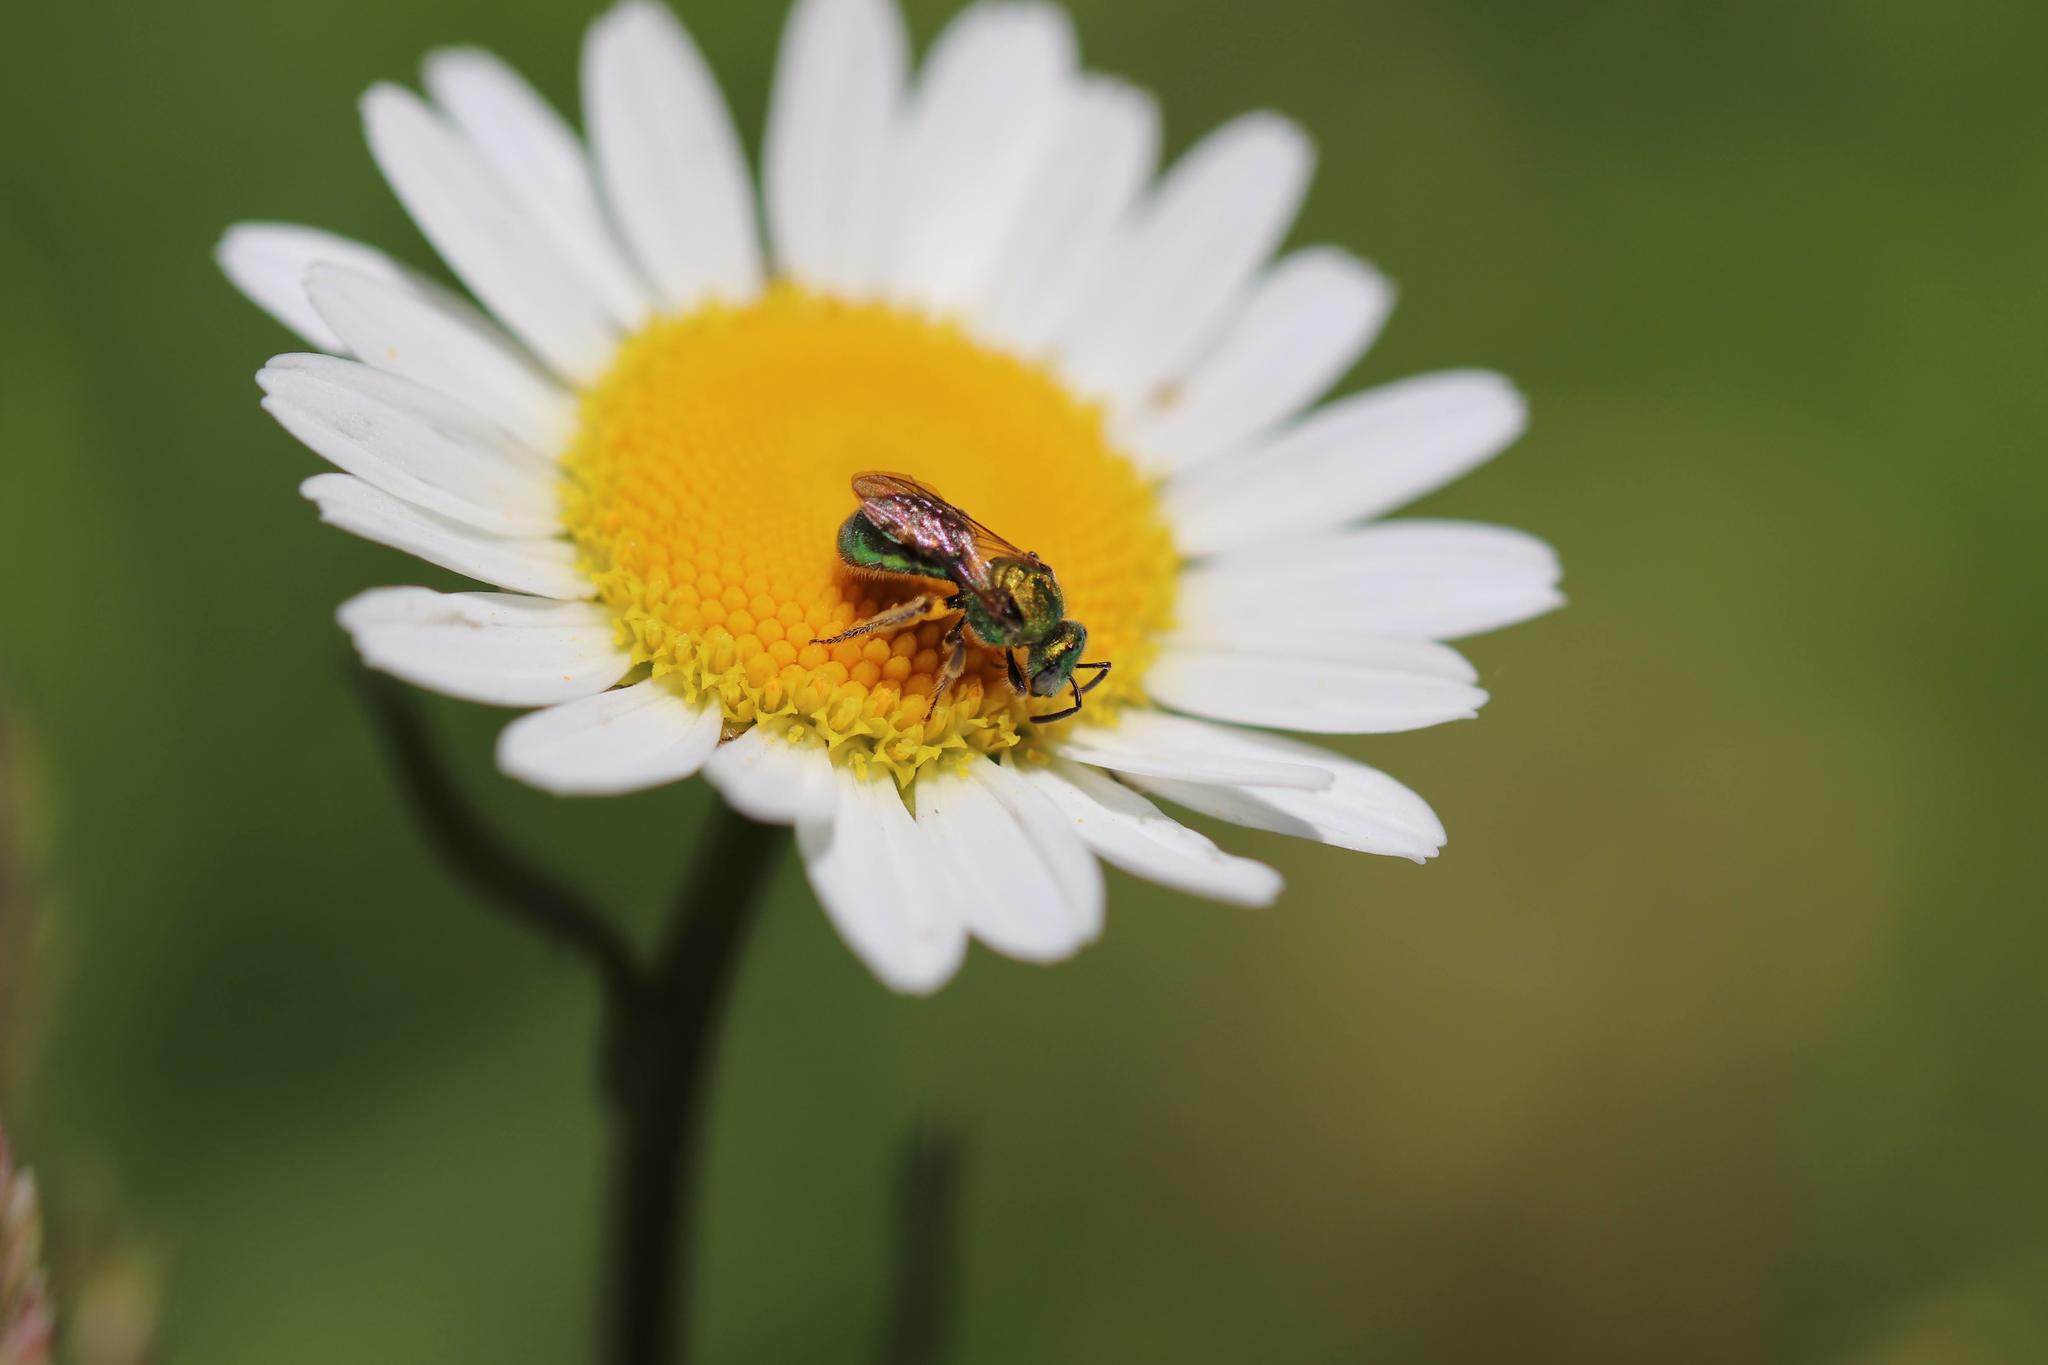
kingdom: Animalia
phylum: Arthropoda
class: Insecta
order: Hymenoptera
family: Halictidae
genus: Augochlorella
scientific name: Augochlorella aurata
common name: Golden sweat bee
